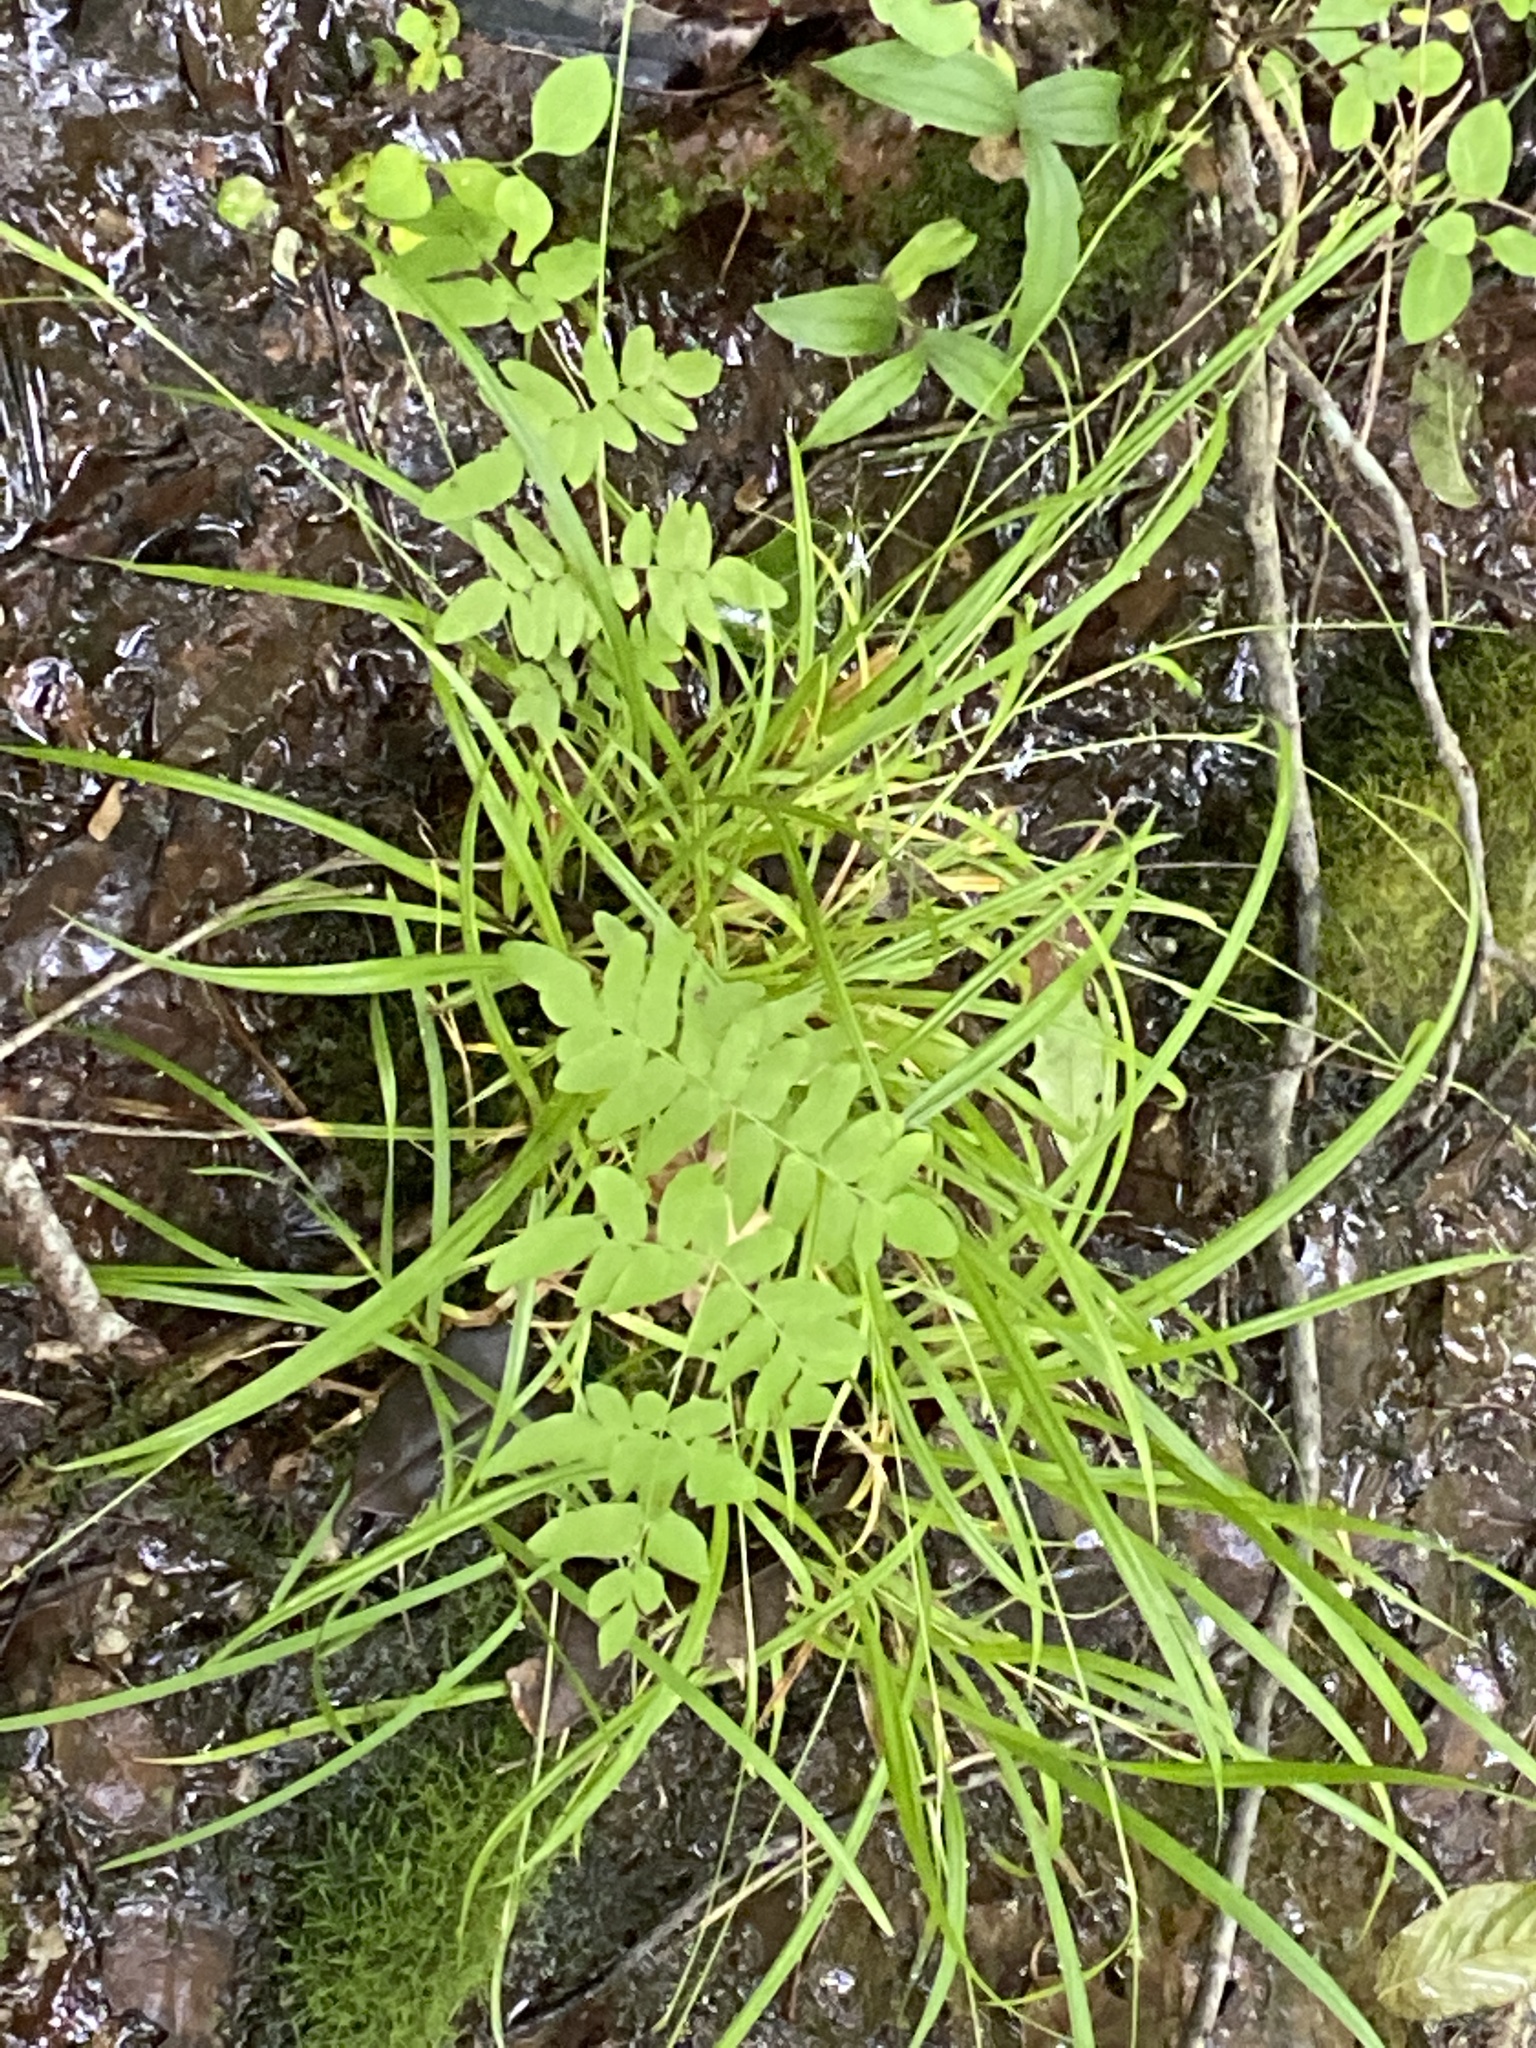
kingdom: Plantae
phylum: Tracheophyta
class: Polypodiopsida
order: Osmundales
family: Osmundaceae
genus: Osmunda
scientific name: Osmunda spectabilis
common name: American royal fern
